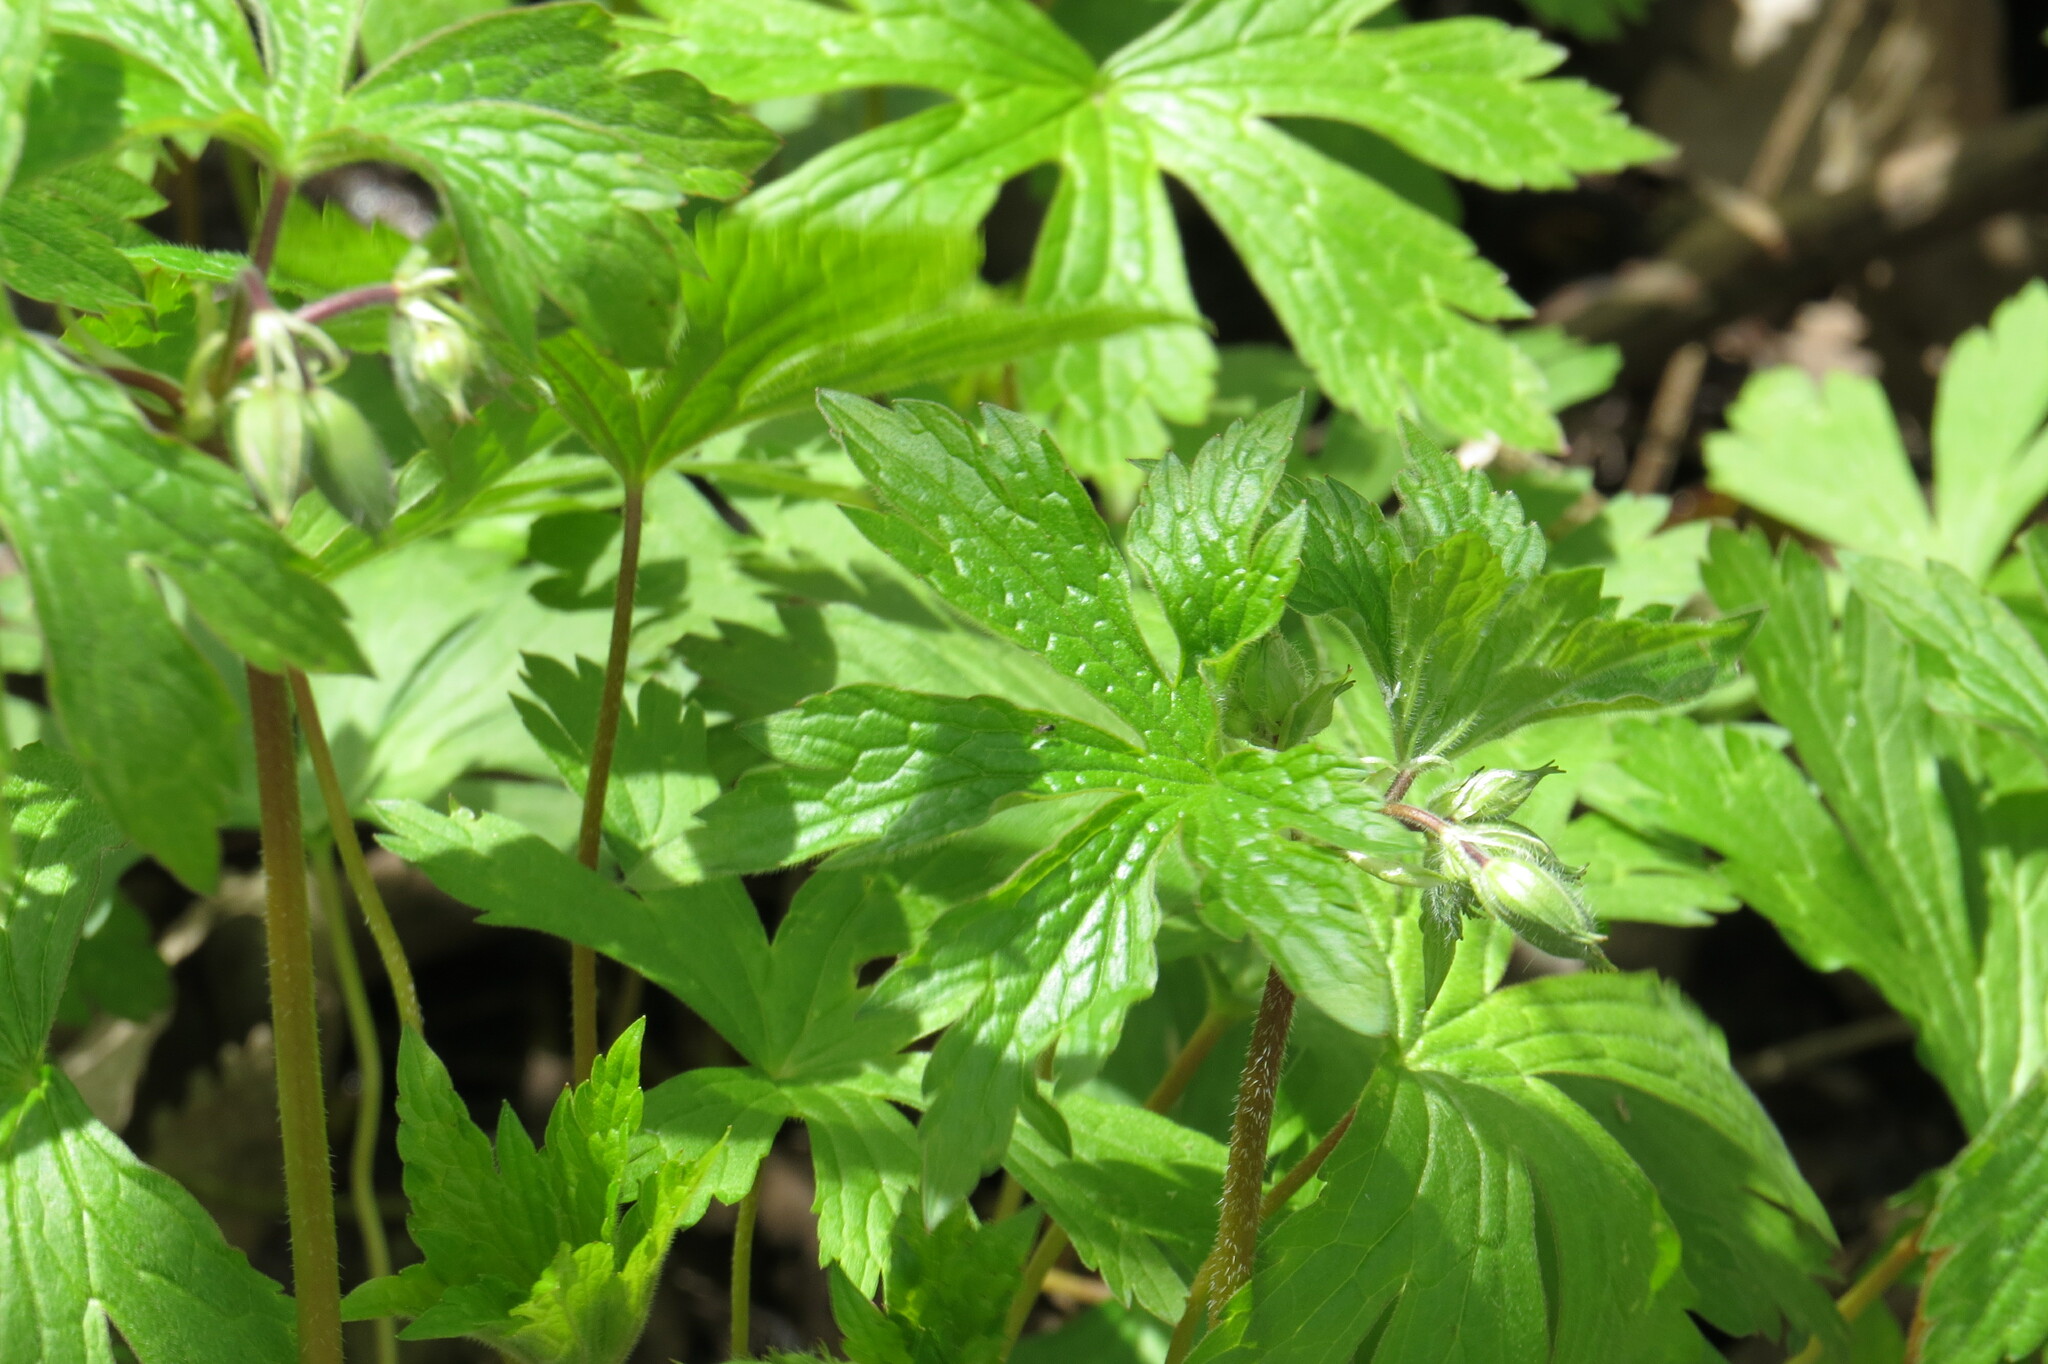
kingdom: Plantae
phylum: Tracheophyta
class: Magnoliopsida
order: Geraniales
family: Geraniaceae
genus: Geranium
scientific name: Geranium maculatum
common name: Spotted geranium
